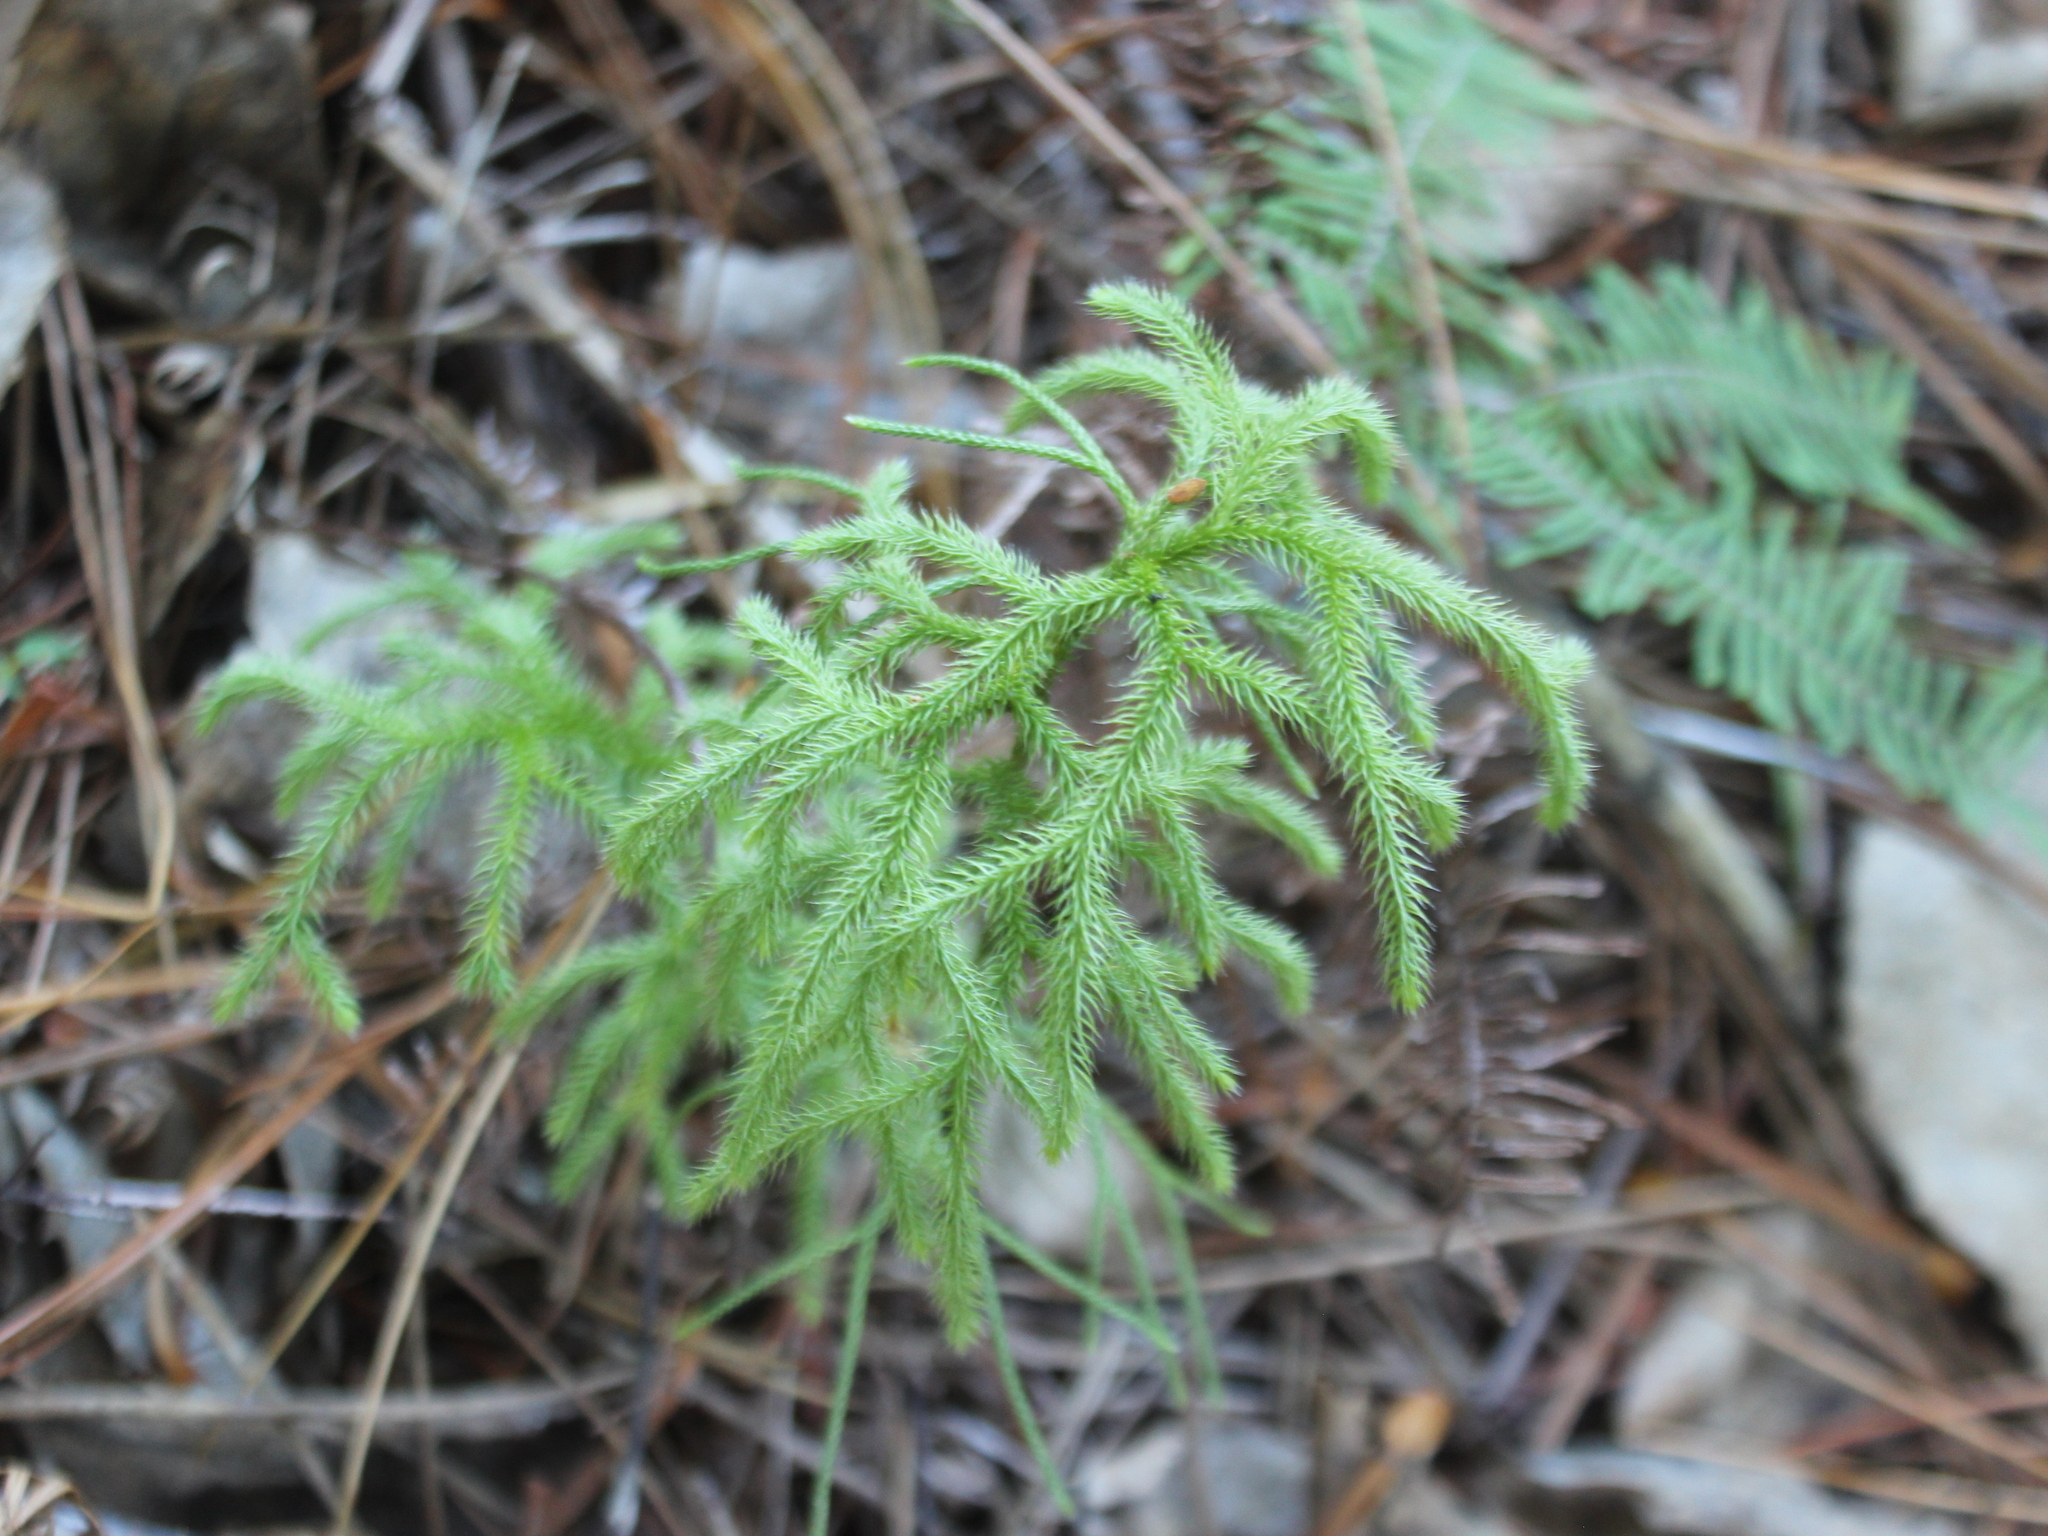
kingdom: Plantae
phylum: Tracheophyta
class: Lycopodiopsida
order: Lycopodiales
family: Lycopodiaceae
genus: Palhinhaea
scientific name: Palhinhaea cernua
